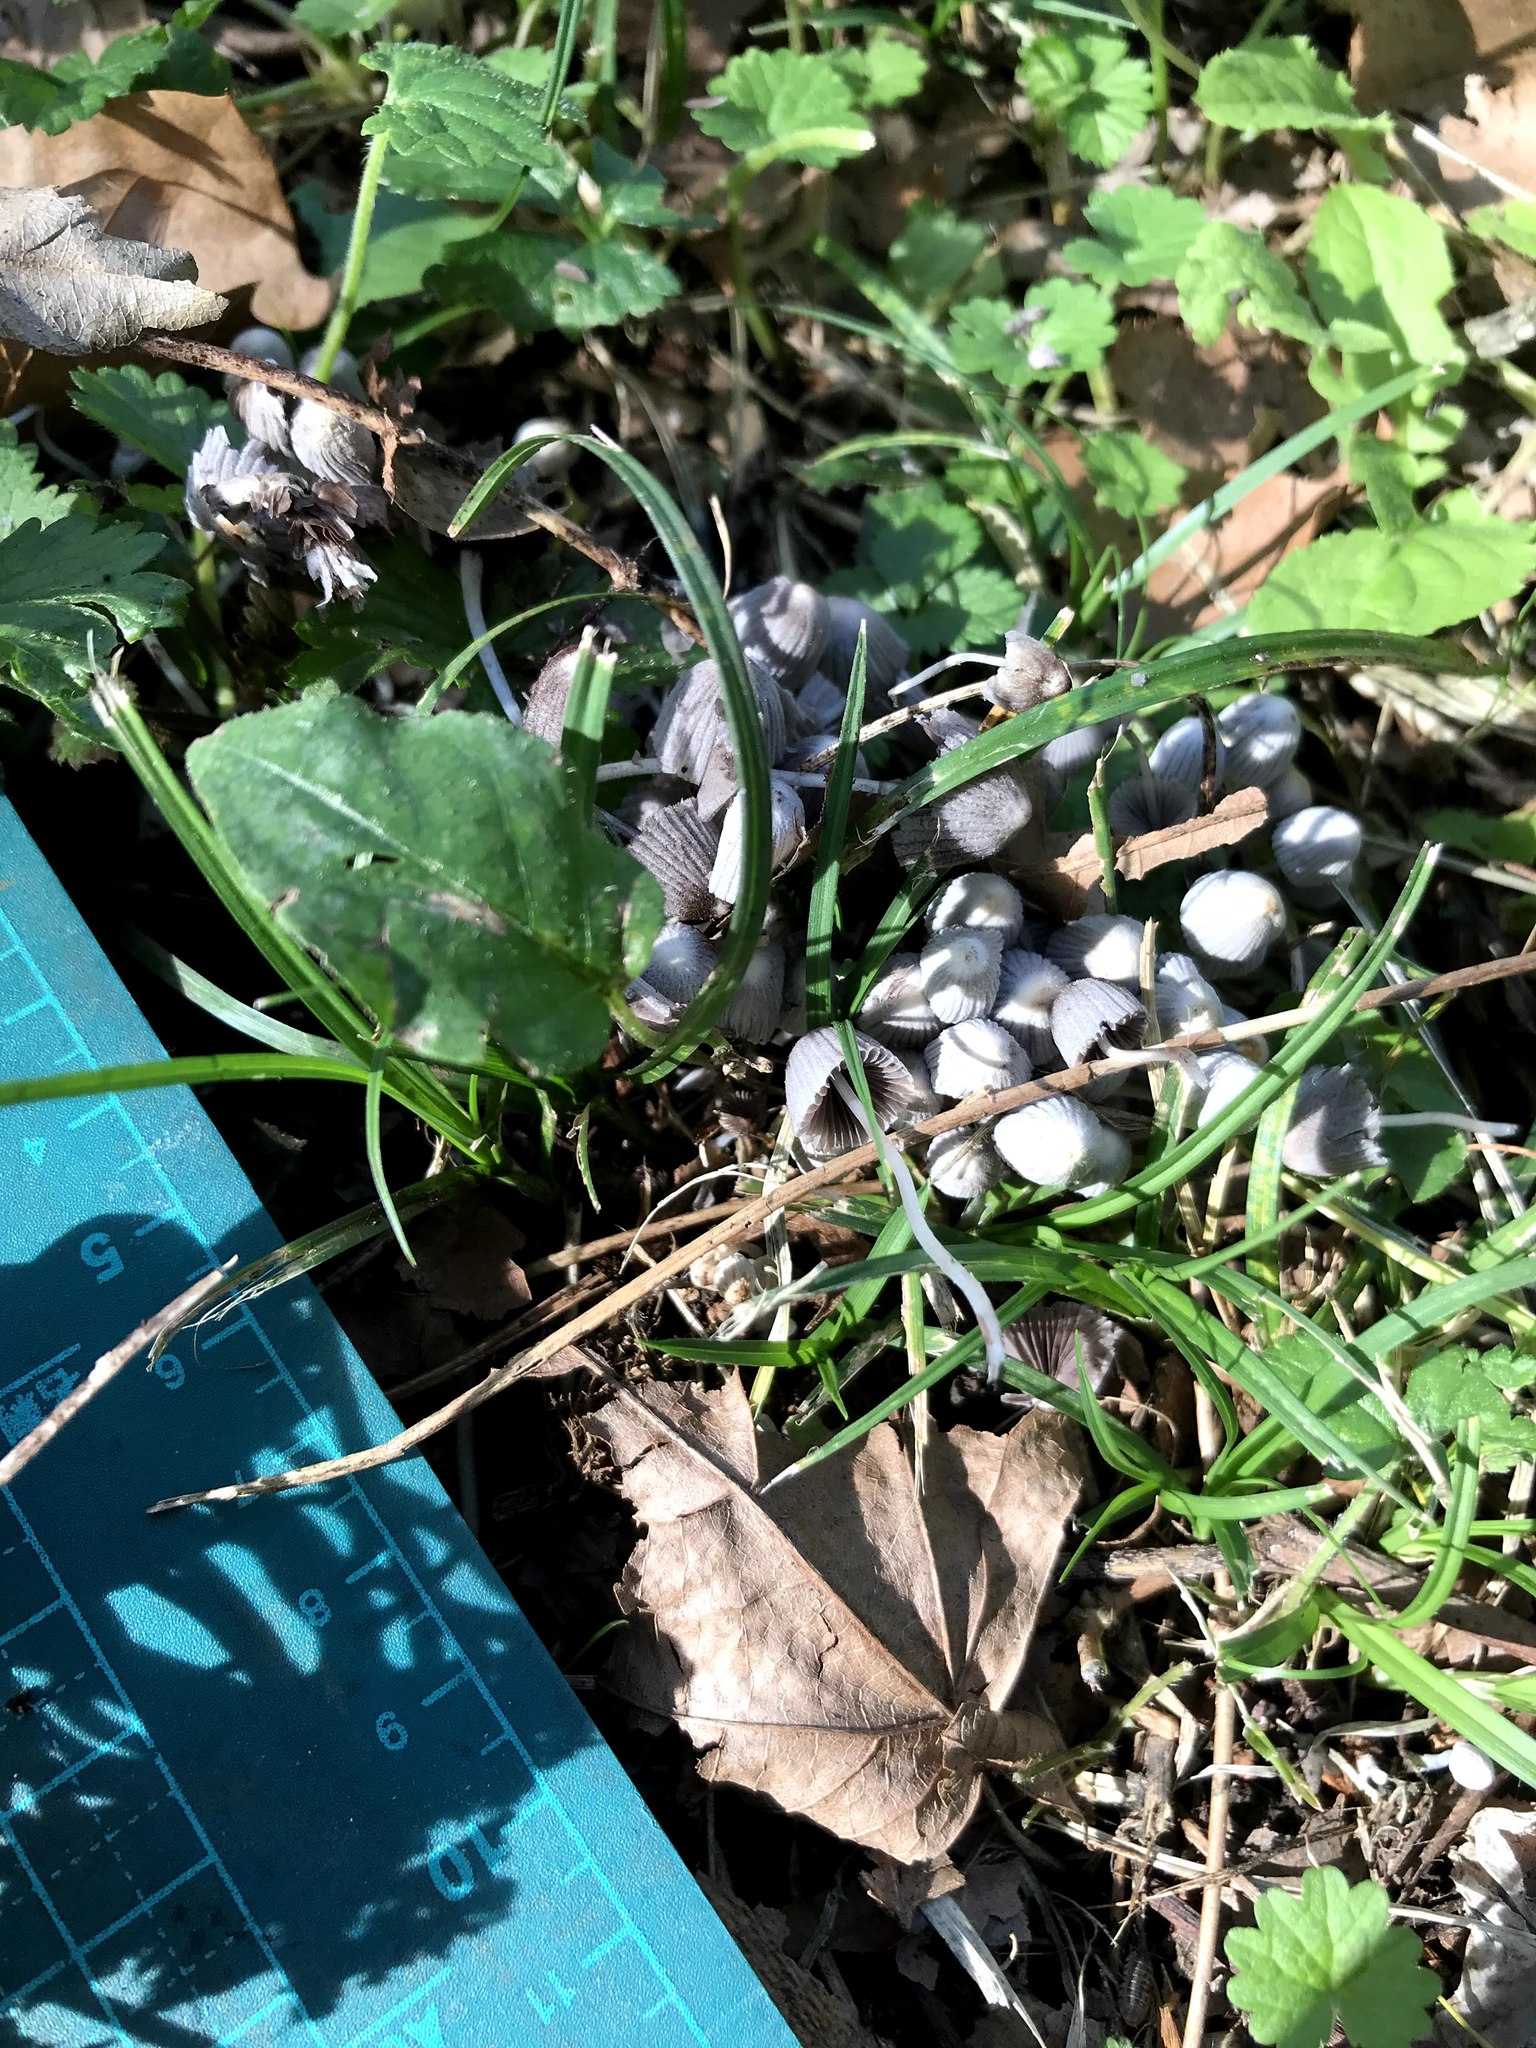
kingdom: Fungi
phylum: Basidiomycota
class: Agaricomycetes
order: Agaricales
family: Psathyrellaceae
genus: Coprinellus
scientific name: Coprinellus disseminatus
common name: Fairies' bonnets
